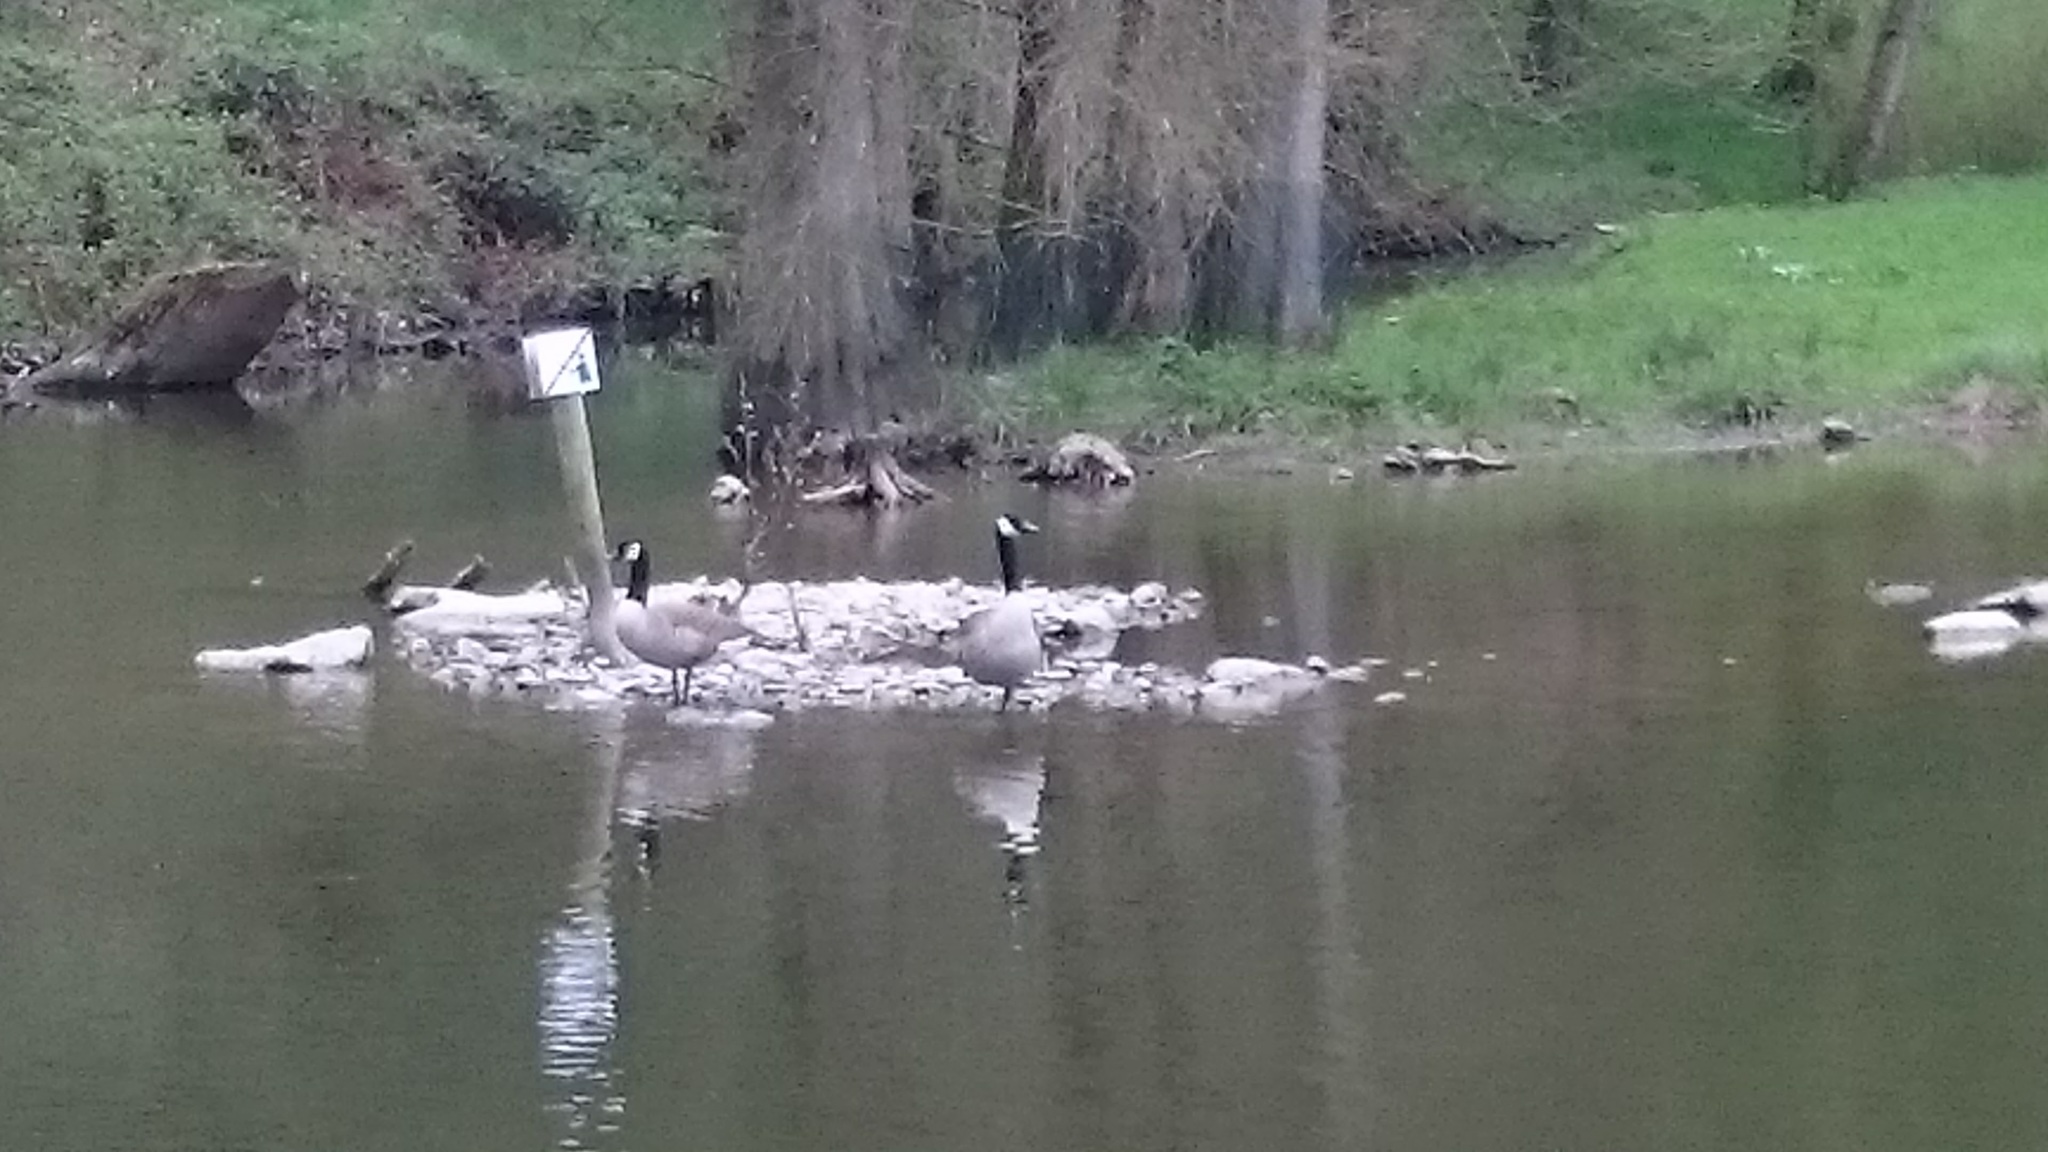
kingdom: Animalia
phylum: Chordata
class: Aves
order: Anseriformes
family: Anatidae
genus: Branta
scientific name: Branta canadensis
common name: Canada goose
